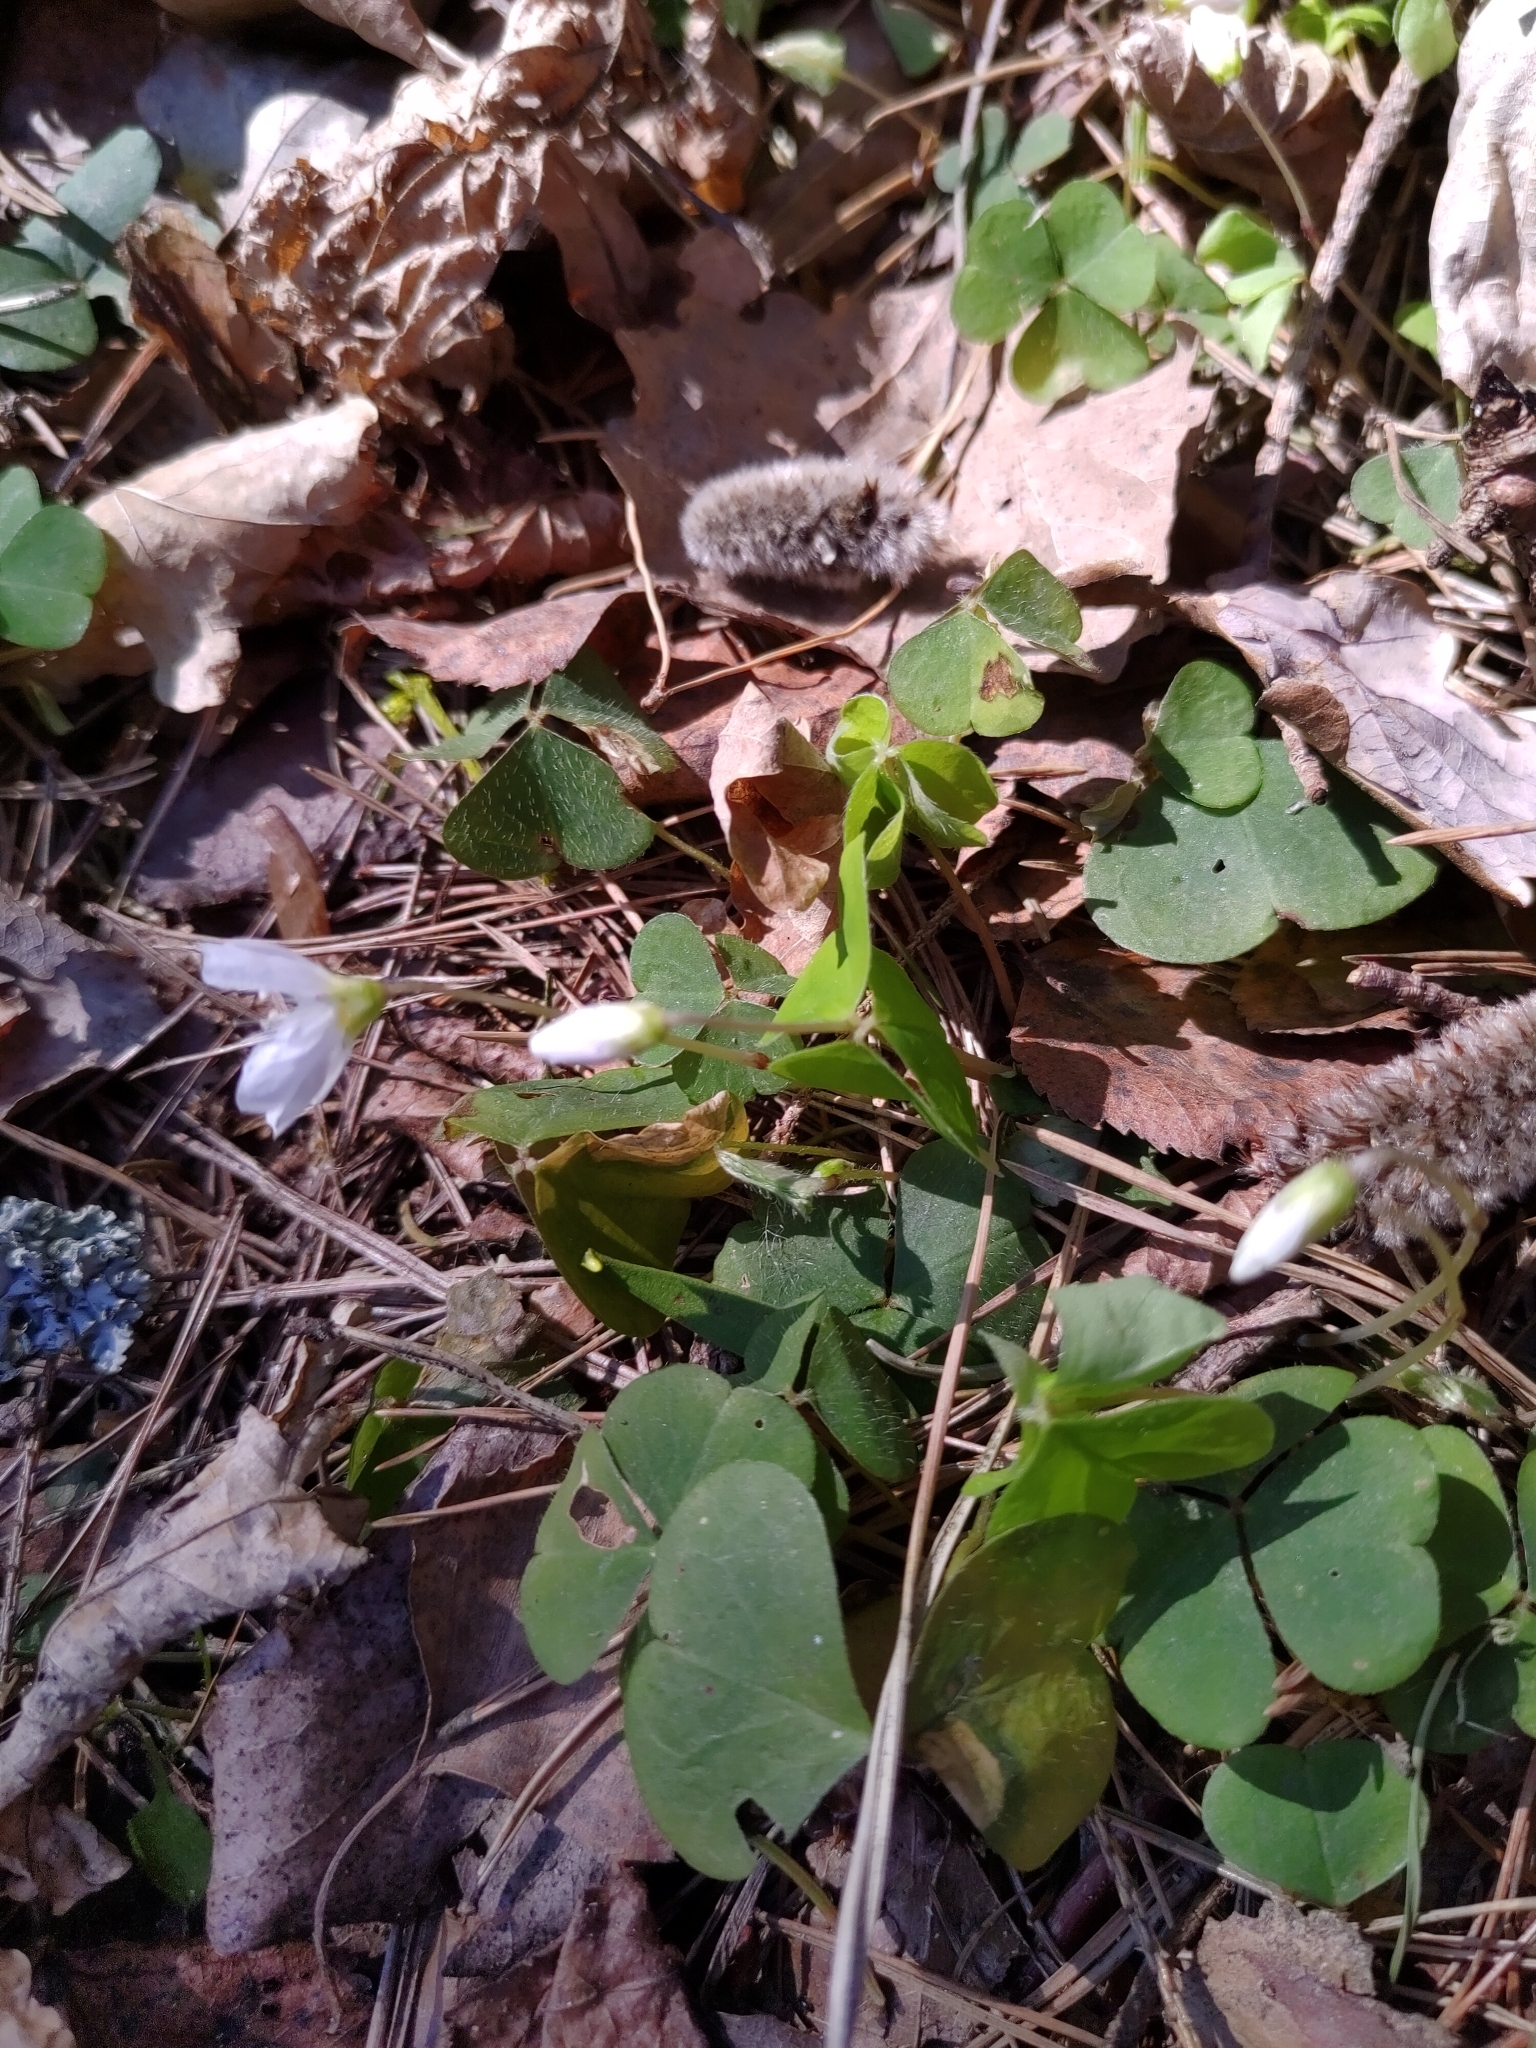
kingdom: Plantae
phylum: Tracheophyta
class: Magnoliopsida
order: Oxalidales
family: Oxalidaceae
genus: Oxalis
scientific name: Oxalis acetosella
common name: Wood-sorrel
